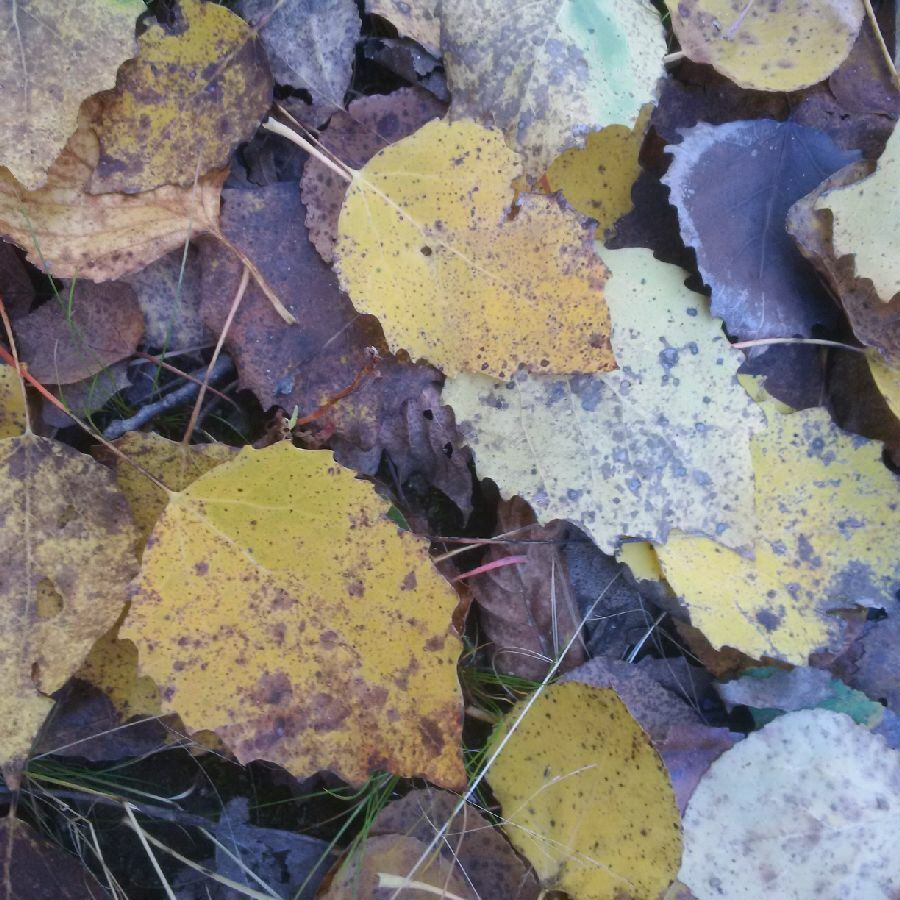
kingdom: Plantae
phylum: Tracheophyta
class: Magnoliopsida
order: Malpighiales
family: Salicaceae
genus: Populus
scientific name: Populus grandidentata
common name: Bigtooth aspen
